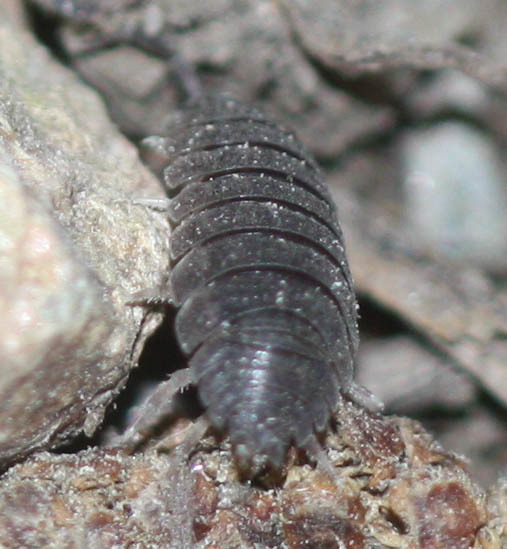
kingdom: Animalia
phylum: Arthropoda
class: Malacostraca
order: Isopoda
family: Porcellionidae
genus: Porcellio
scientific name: Porcellio scaber
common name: Common rough woodlouse
